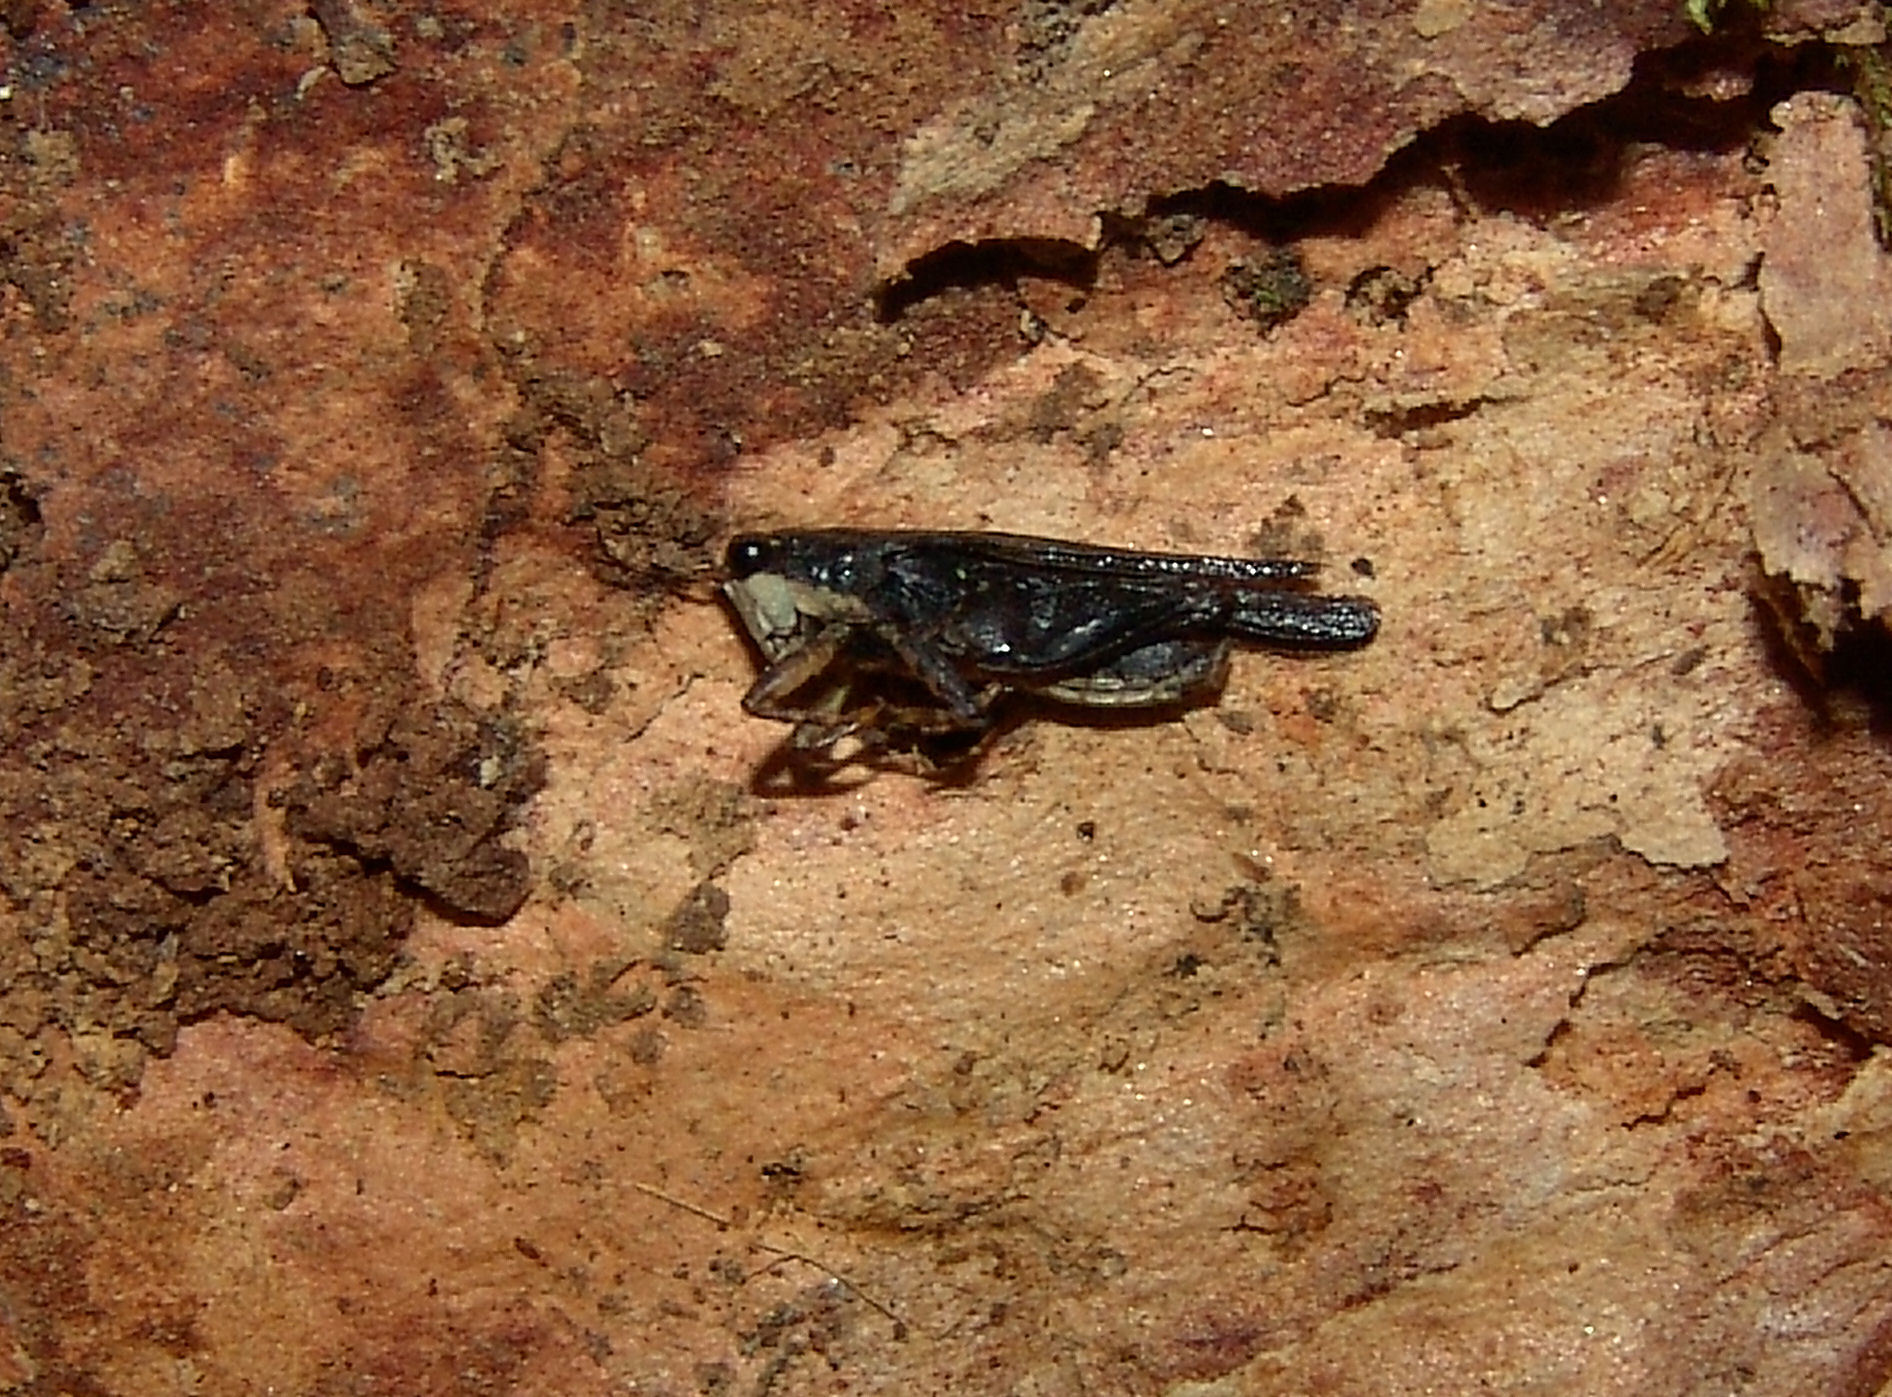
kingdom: Animalia
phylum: Arthropoda
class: Insecta
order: Orthoptera
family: Tetrigidae
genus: Tettigidea
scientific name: Tettigidea laterale
